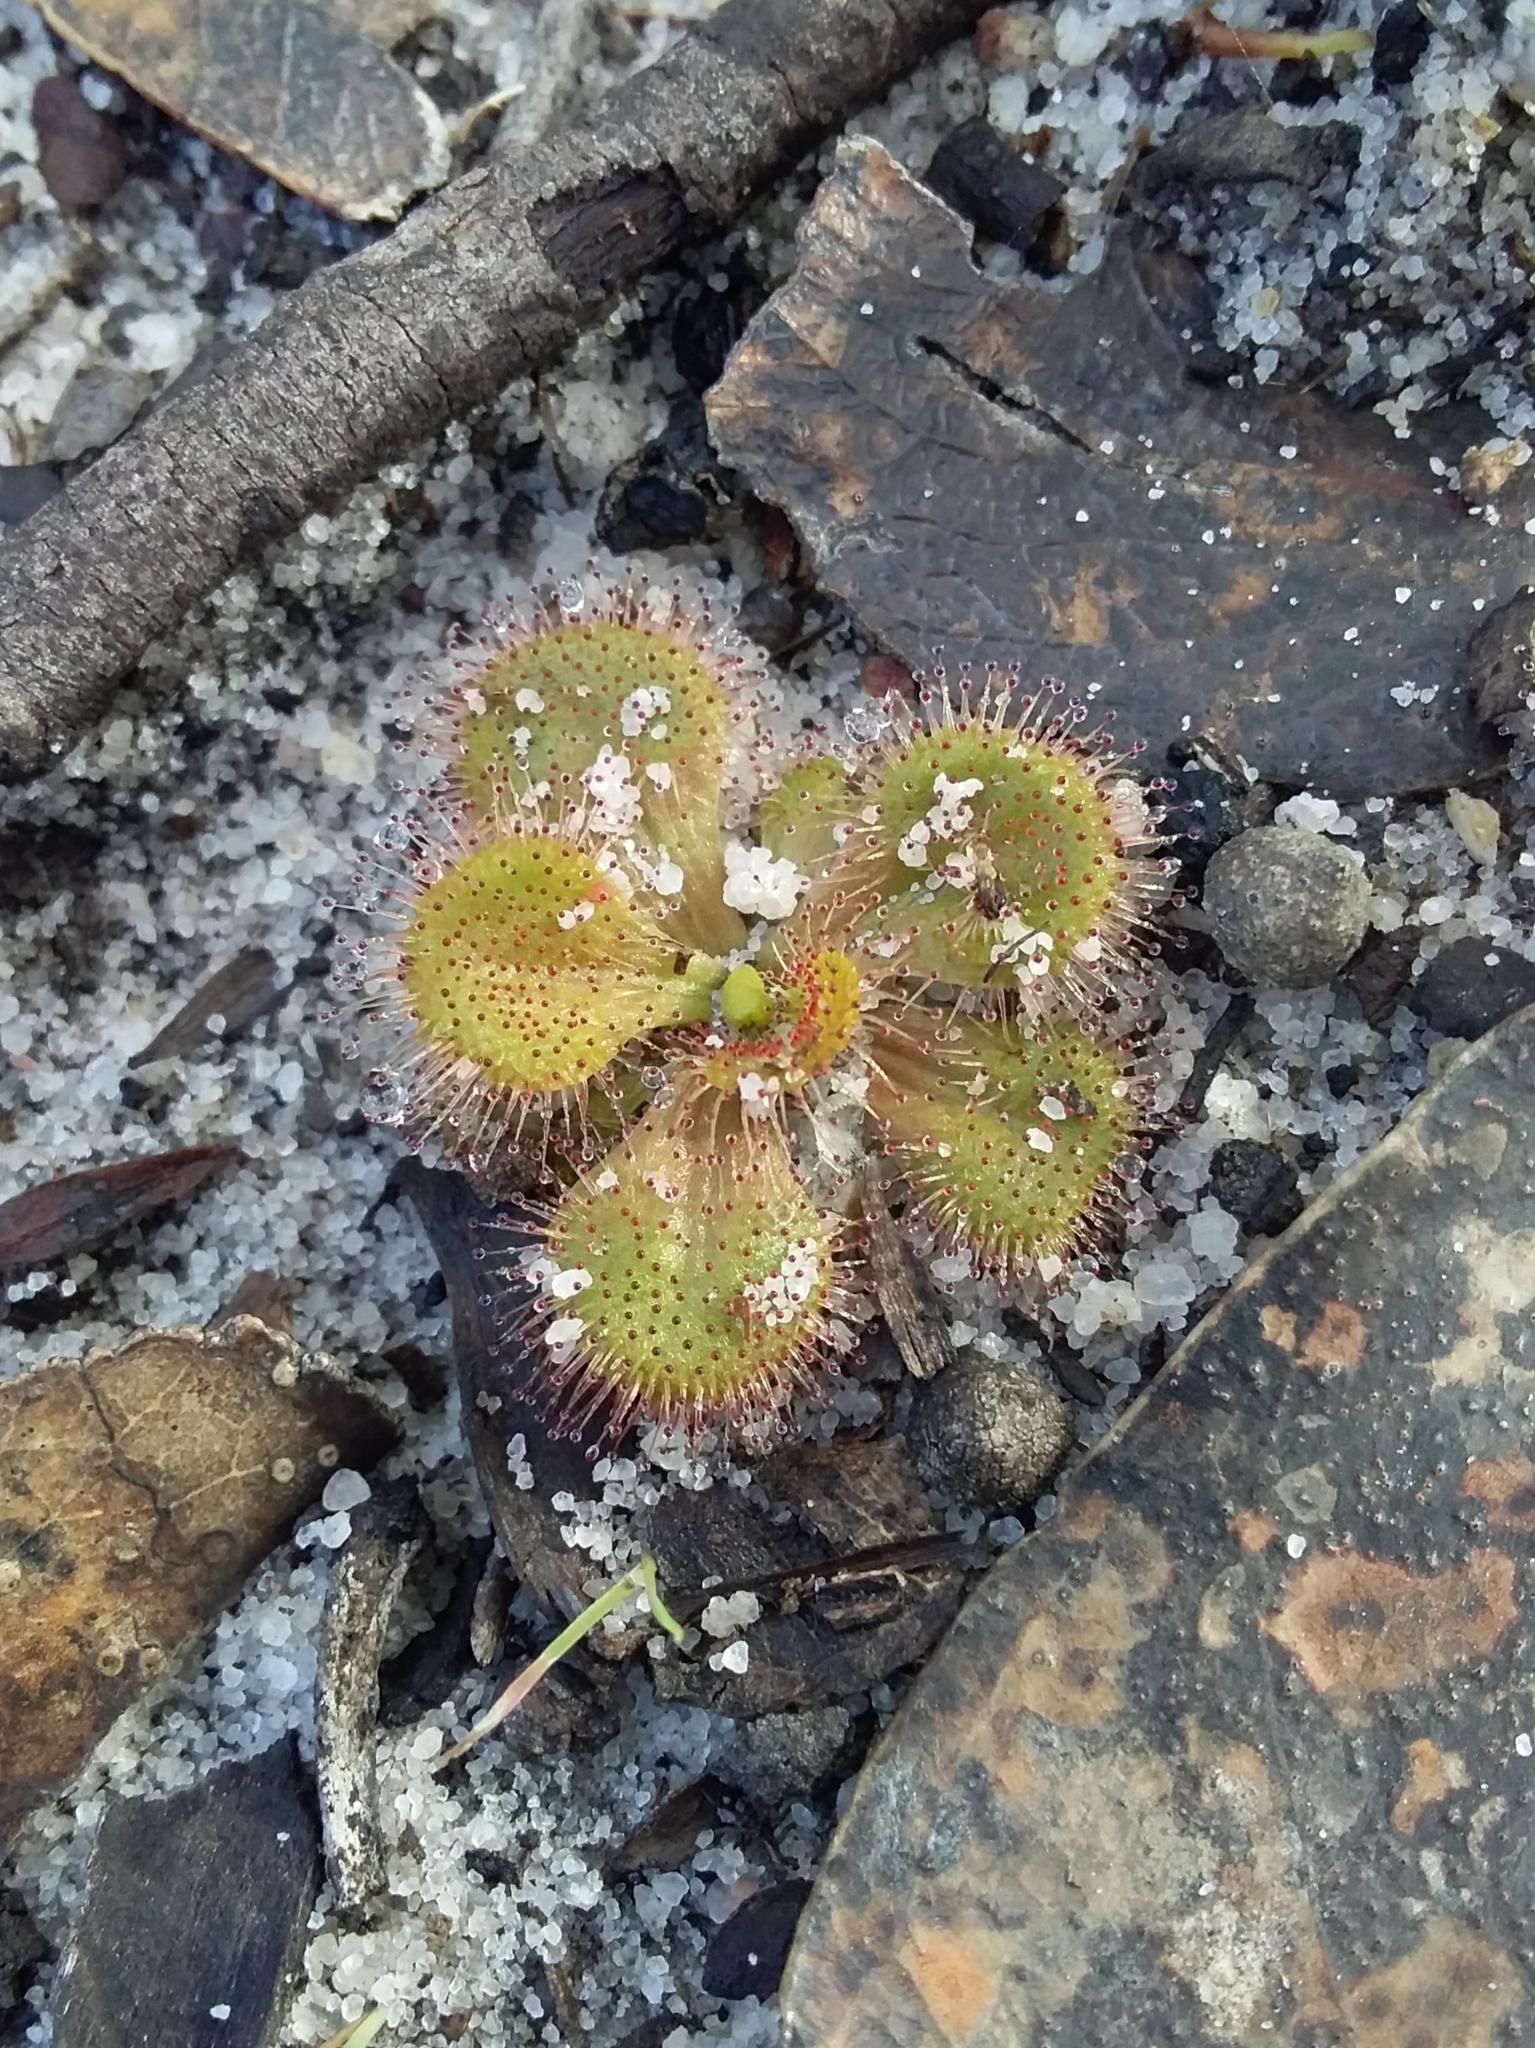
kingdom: Plantae
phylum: Tracheophyta
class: Magnoliopsida
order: Caryophyllales
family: Droseraceae
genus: Drosera
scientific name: Drosera whittakeri
